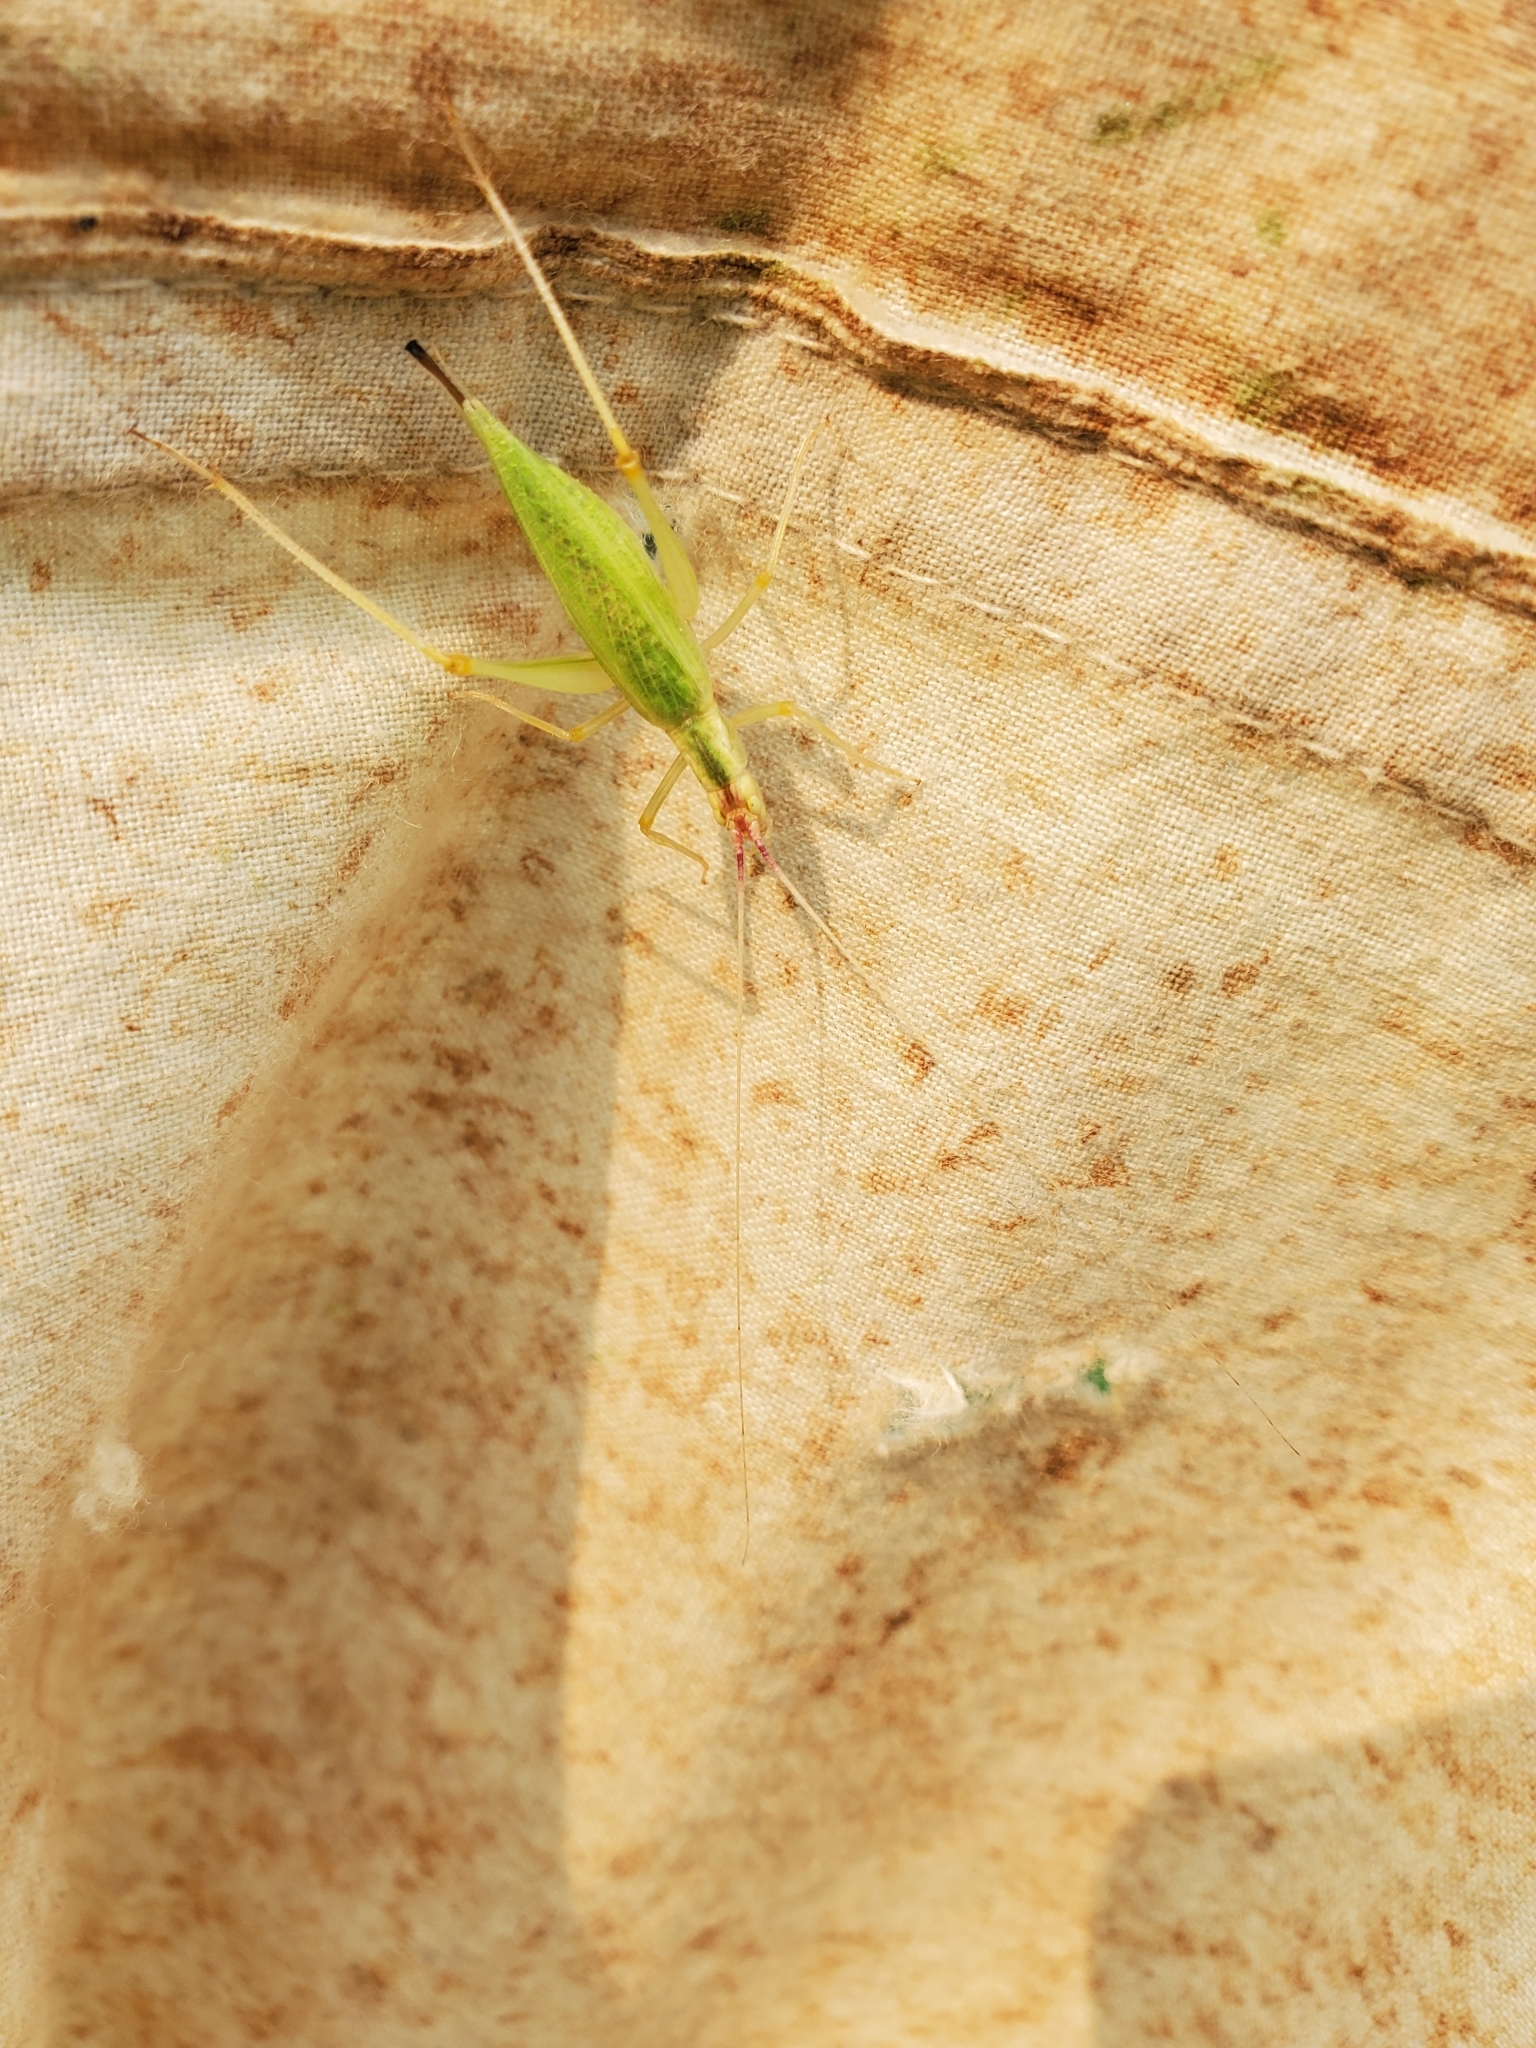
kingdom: Animalia
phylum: Arthropoda
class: Insecta
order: Orthoptera
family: Gryllidae
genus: Oecanthus
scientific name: Oecanthus latipennis
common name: Broad-winged tree cricket
